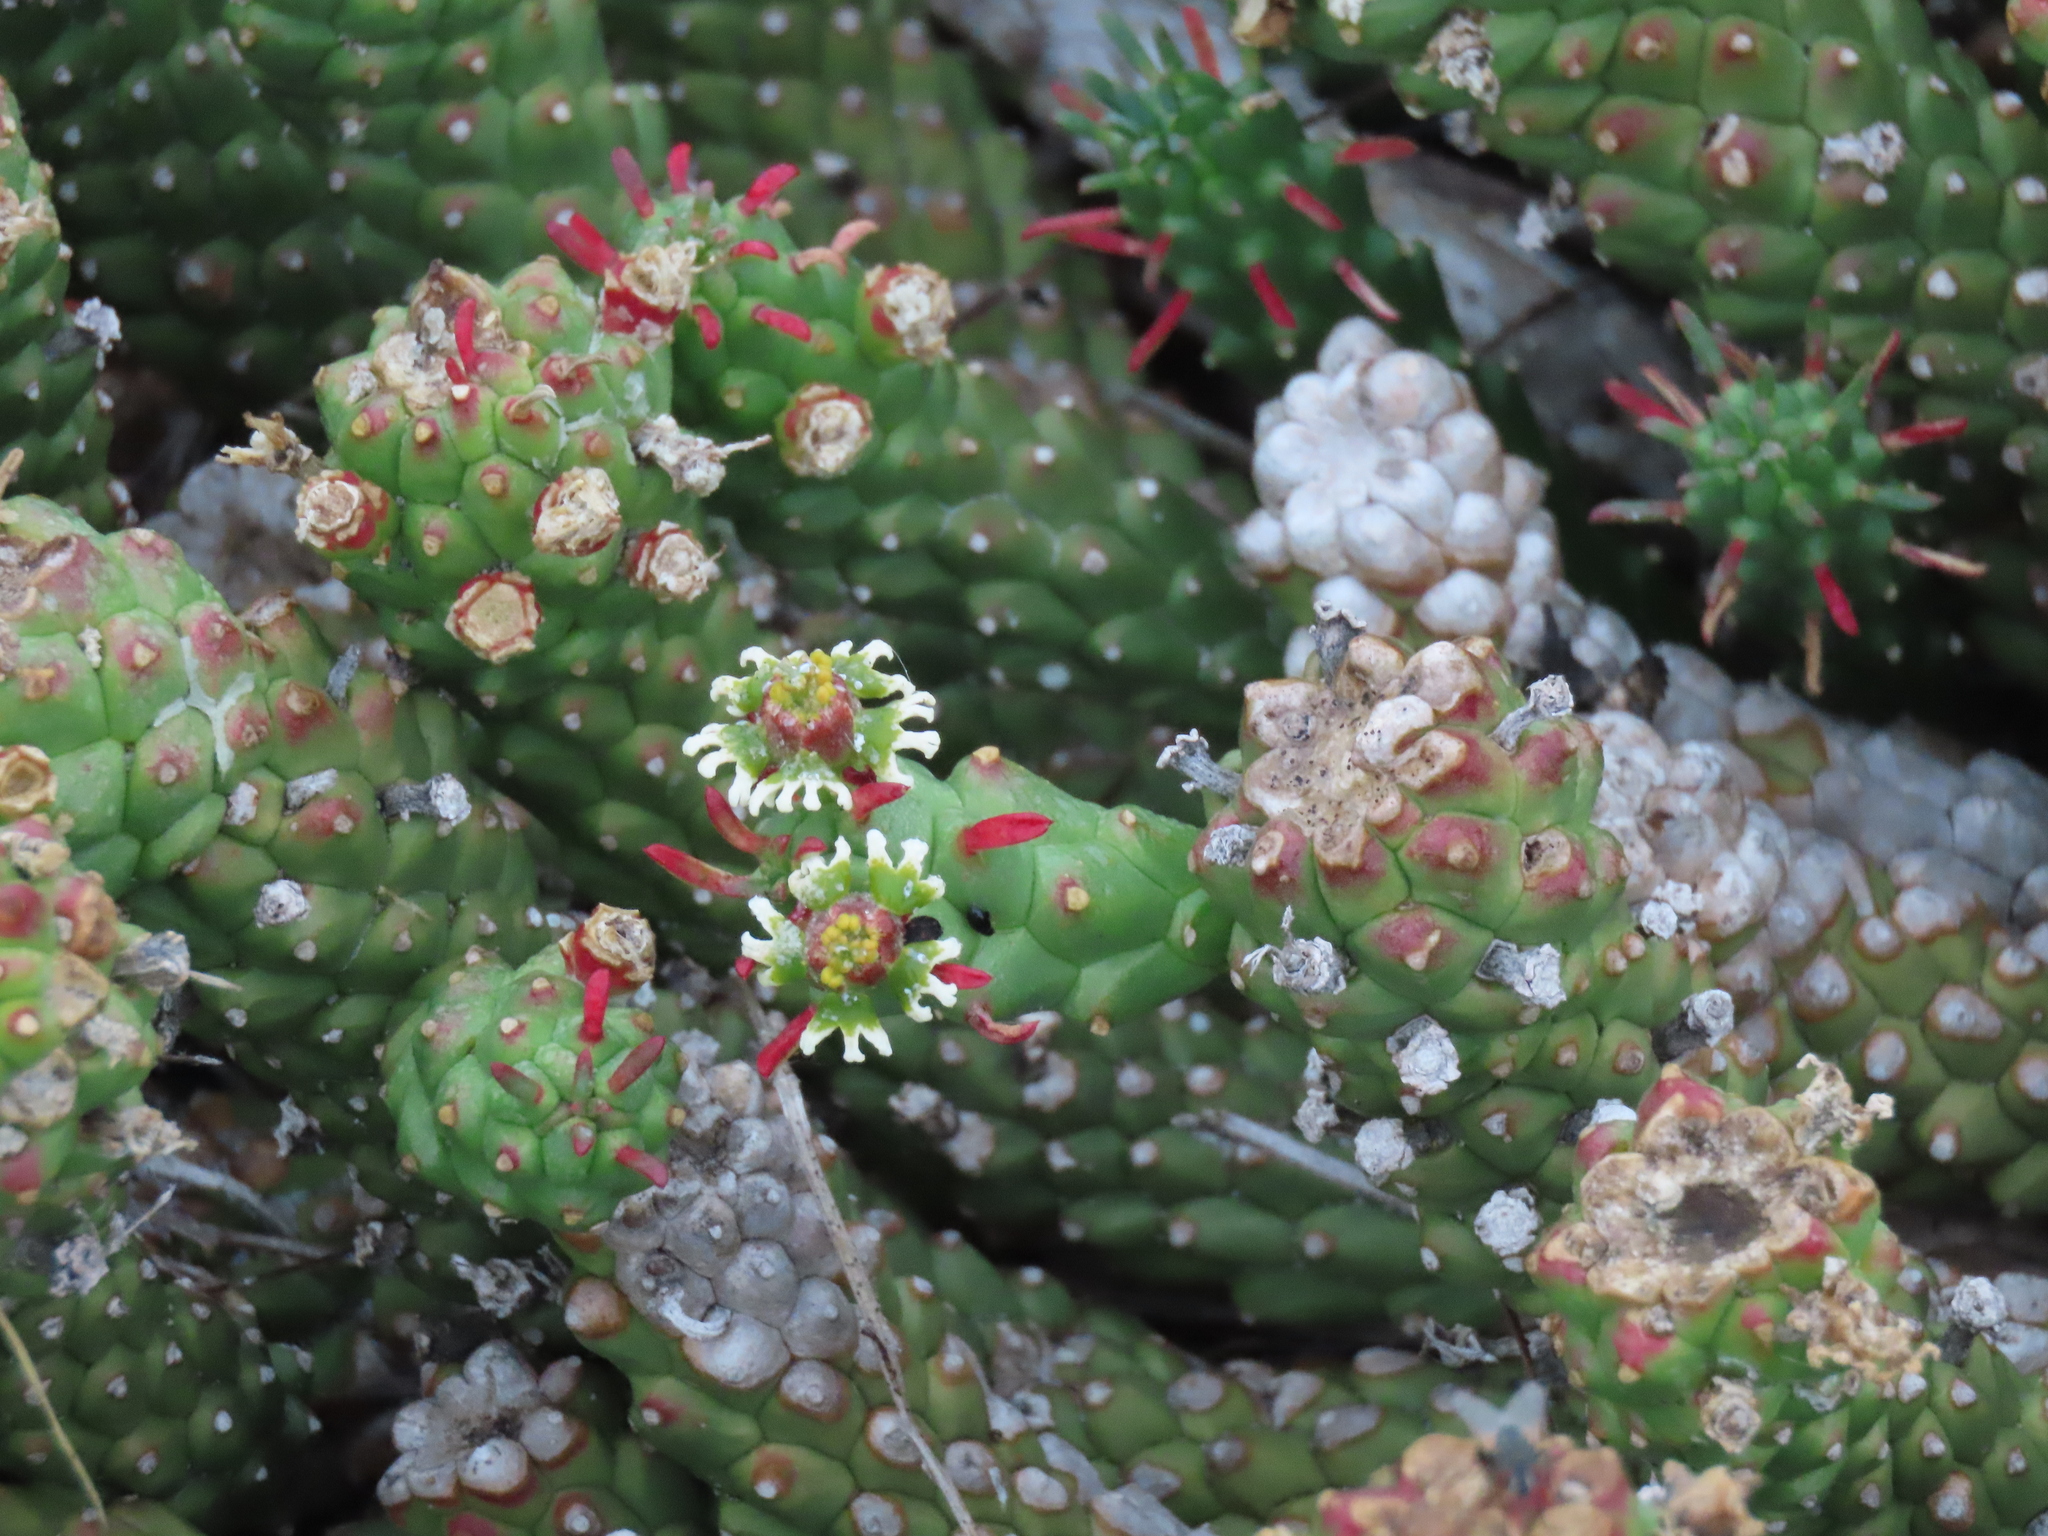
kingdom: Plantae
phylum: Tracheophyta
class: Magnoliopsida
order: Malpighiales
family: Euphorbiaceae
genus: Euphorbia
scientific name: Euphorbia caput-medusae
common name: Medusa's-head
